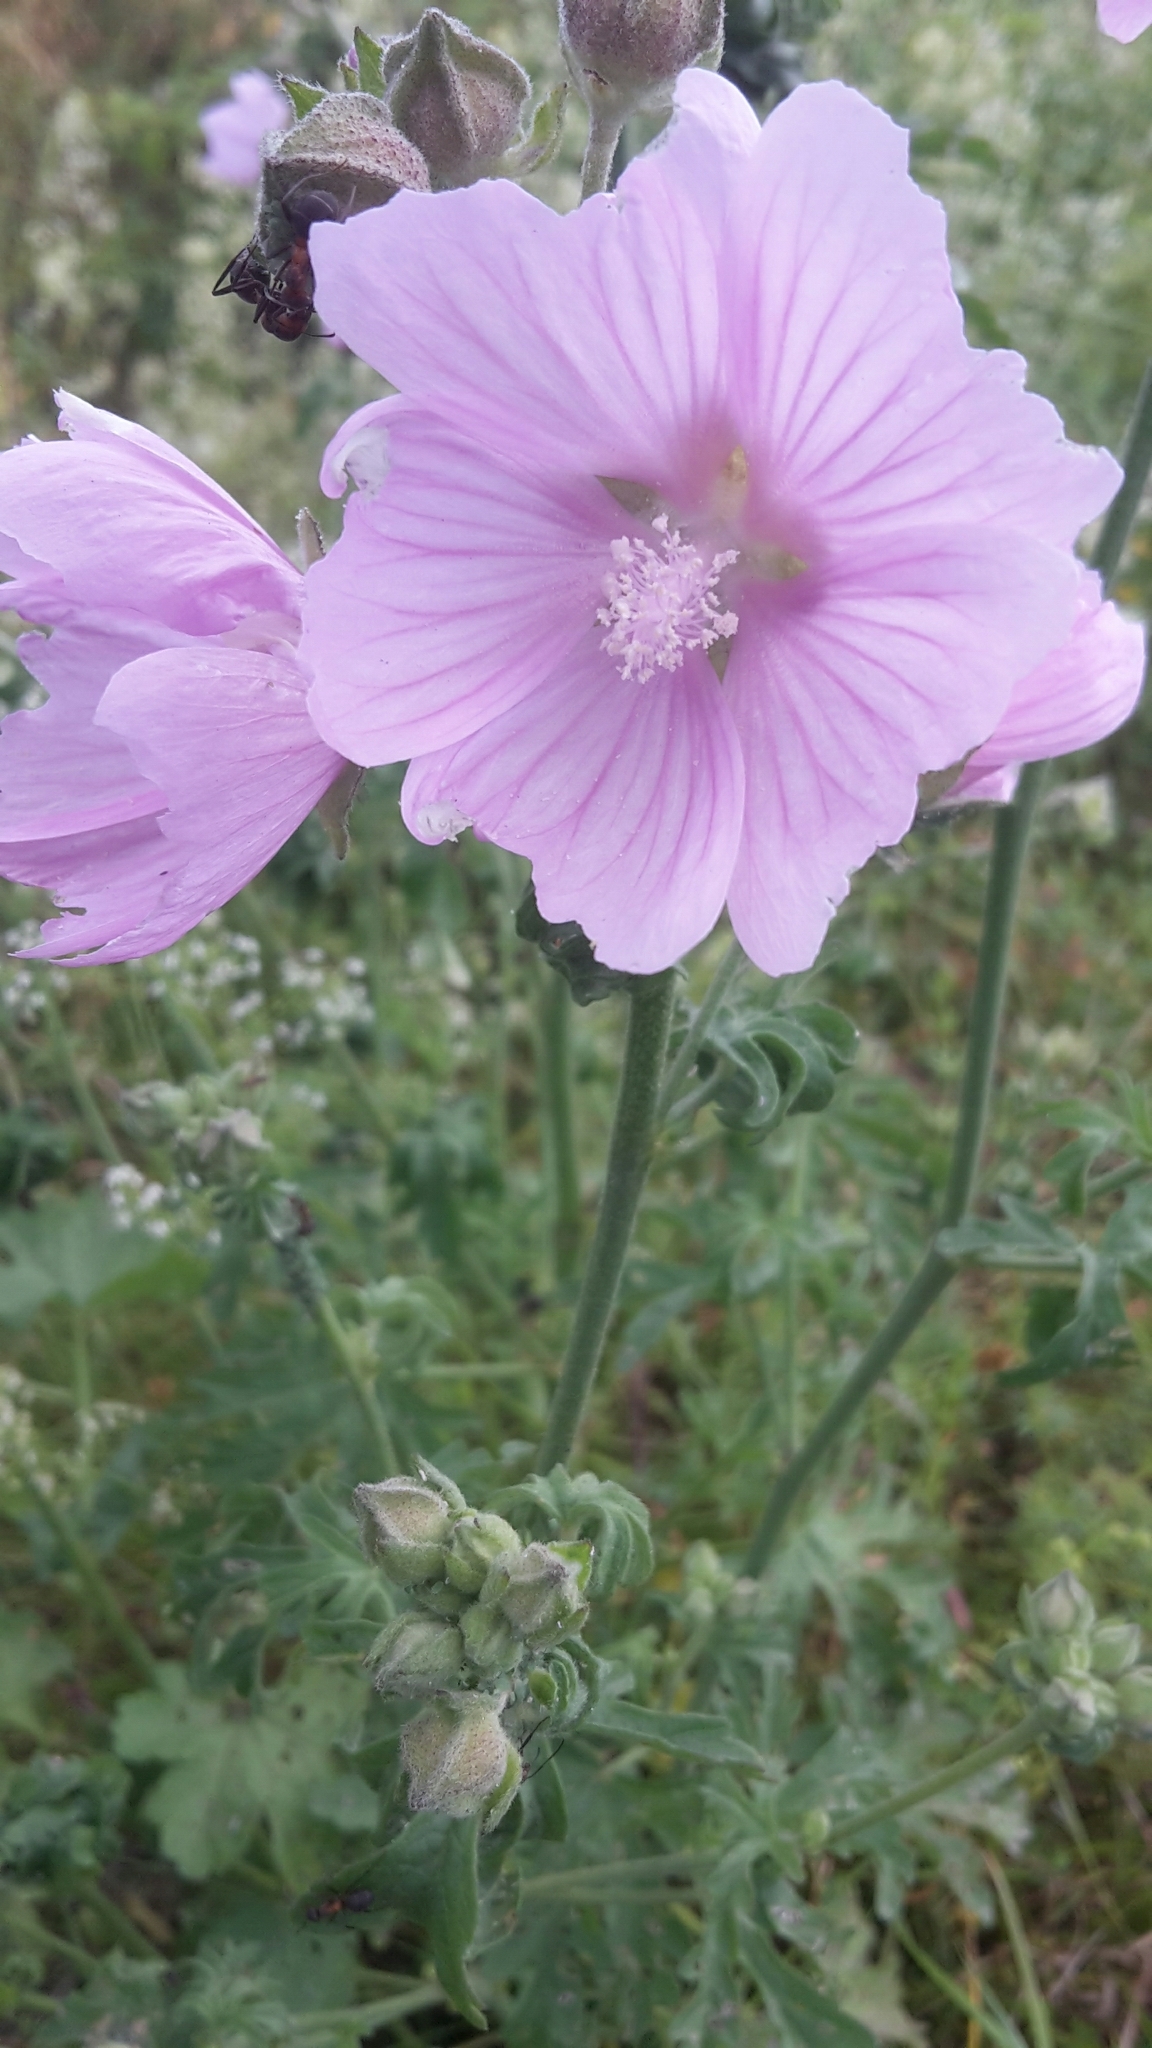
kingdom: Plantae
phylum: Tracheophyta
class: Magnoliopsida
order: Malvales
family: Malvaceae
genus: Malva
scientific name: Malva alcea
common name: Greater musk-mallow
